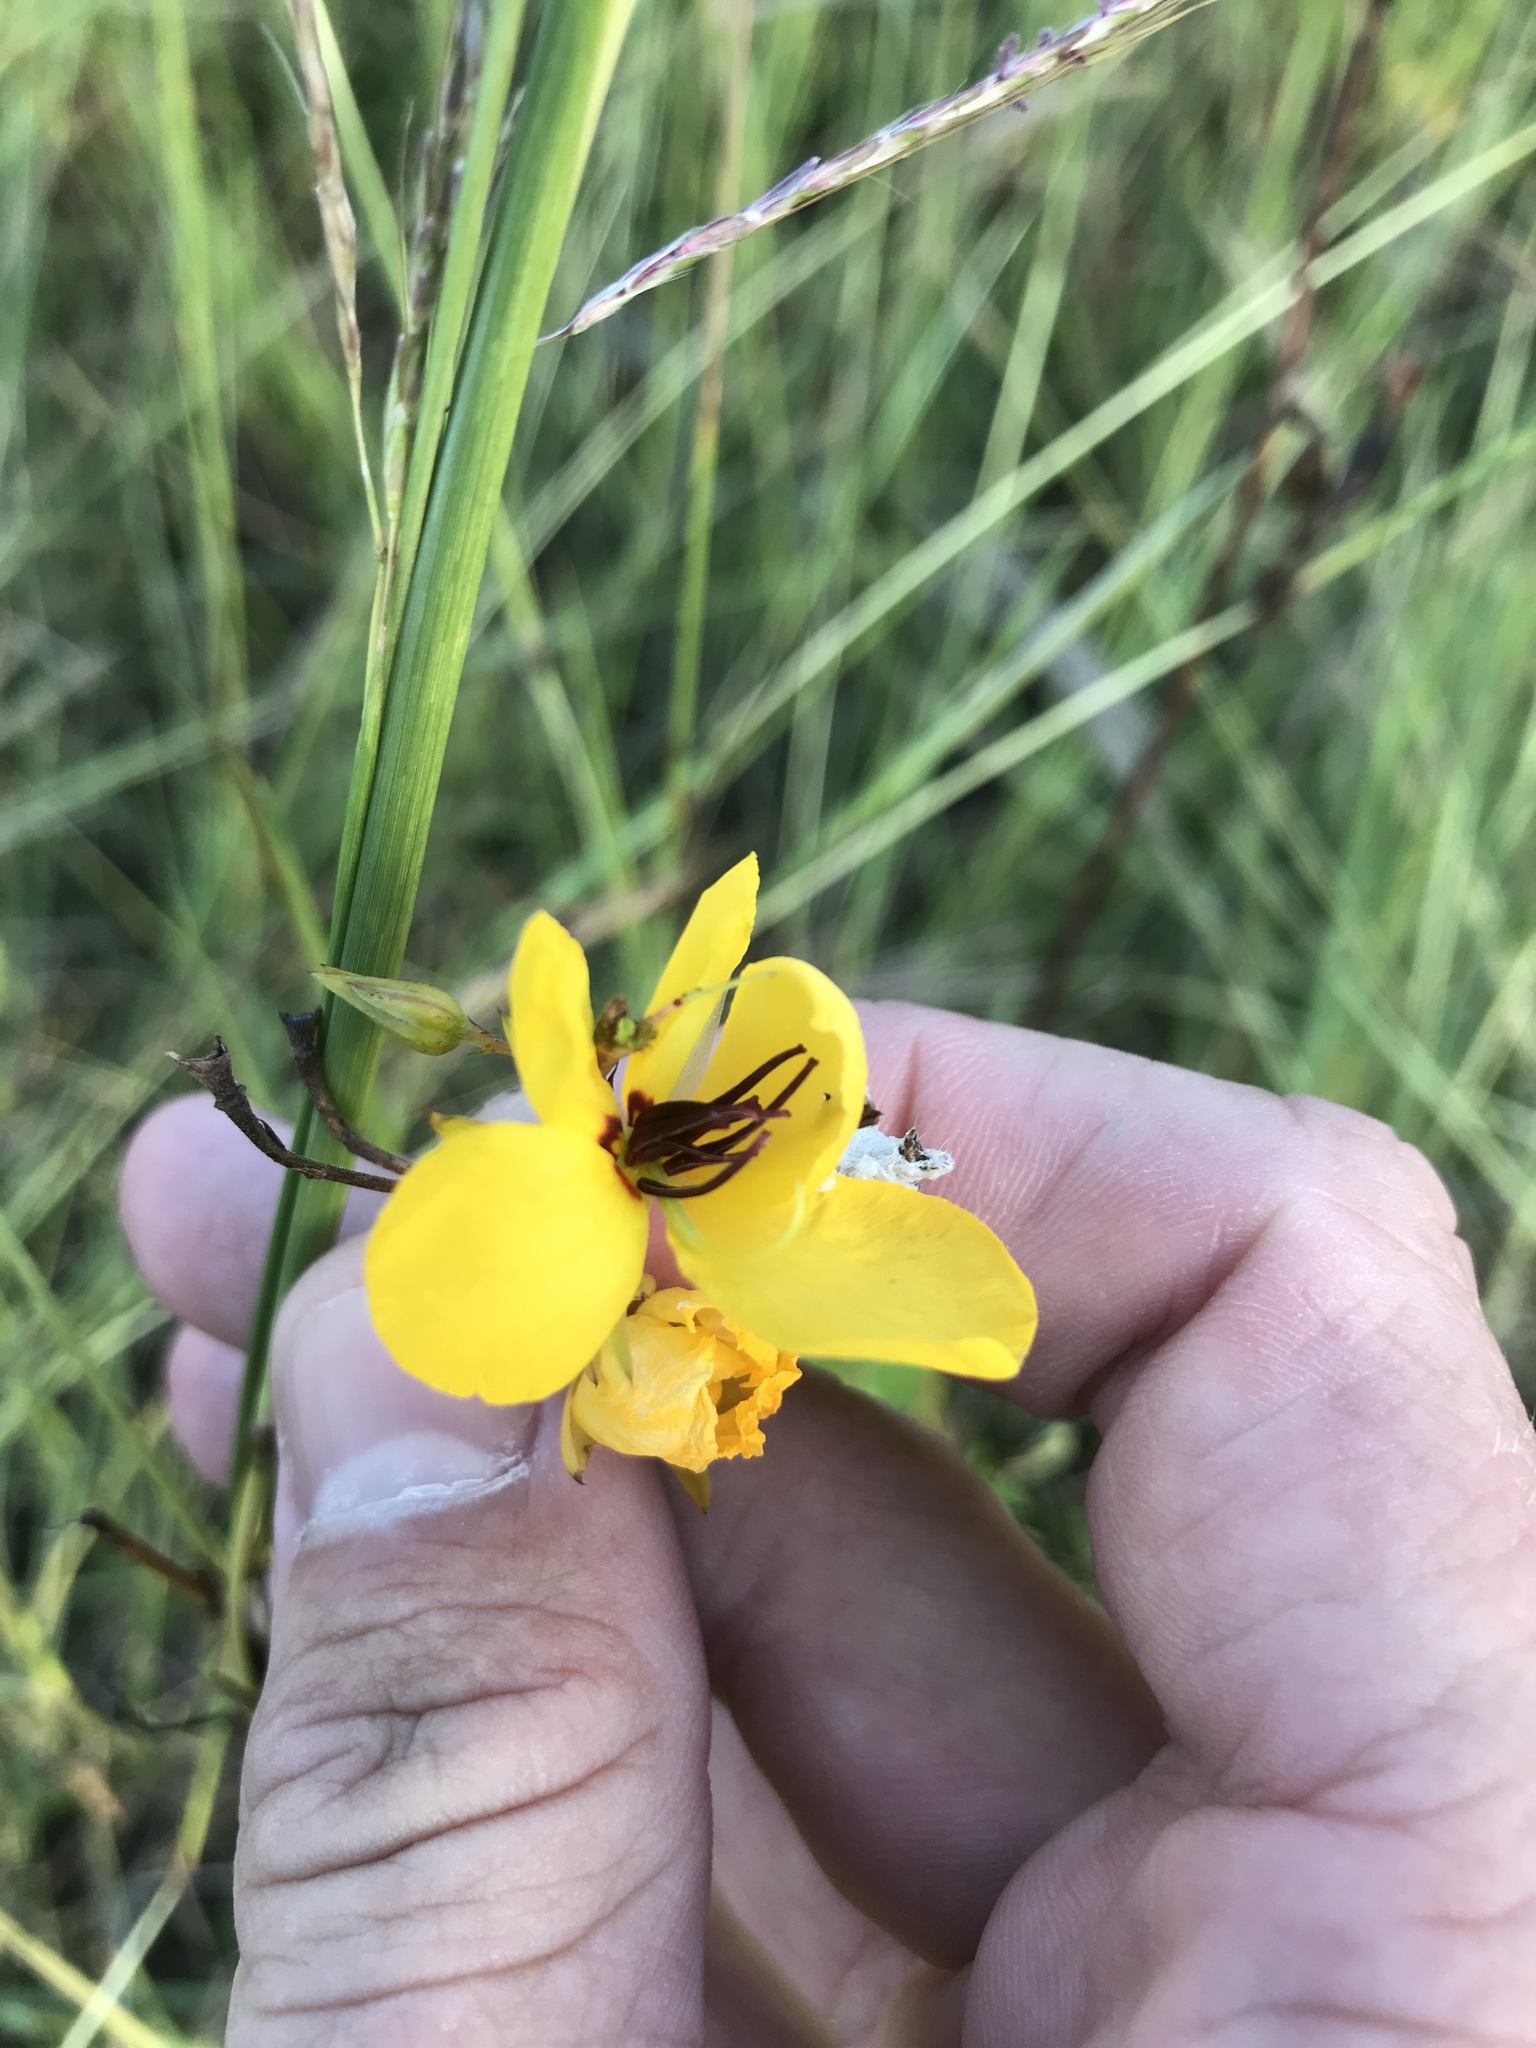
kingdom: Plantae
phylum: Tracheophyta
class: Magnoliopsida
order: Fabales
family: Fabaceae
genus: Chamaecrista
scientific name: Chamaecrista fasciculata
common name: Golden cassia
